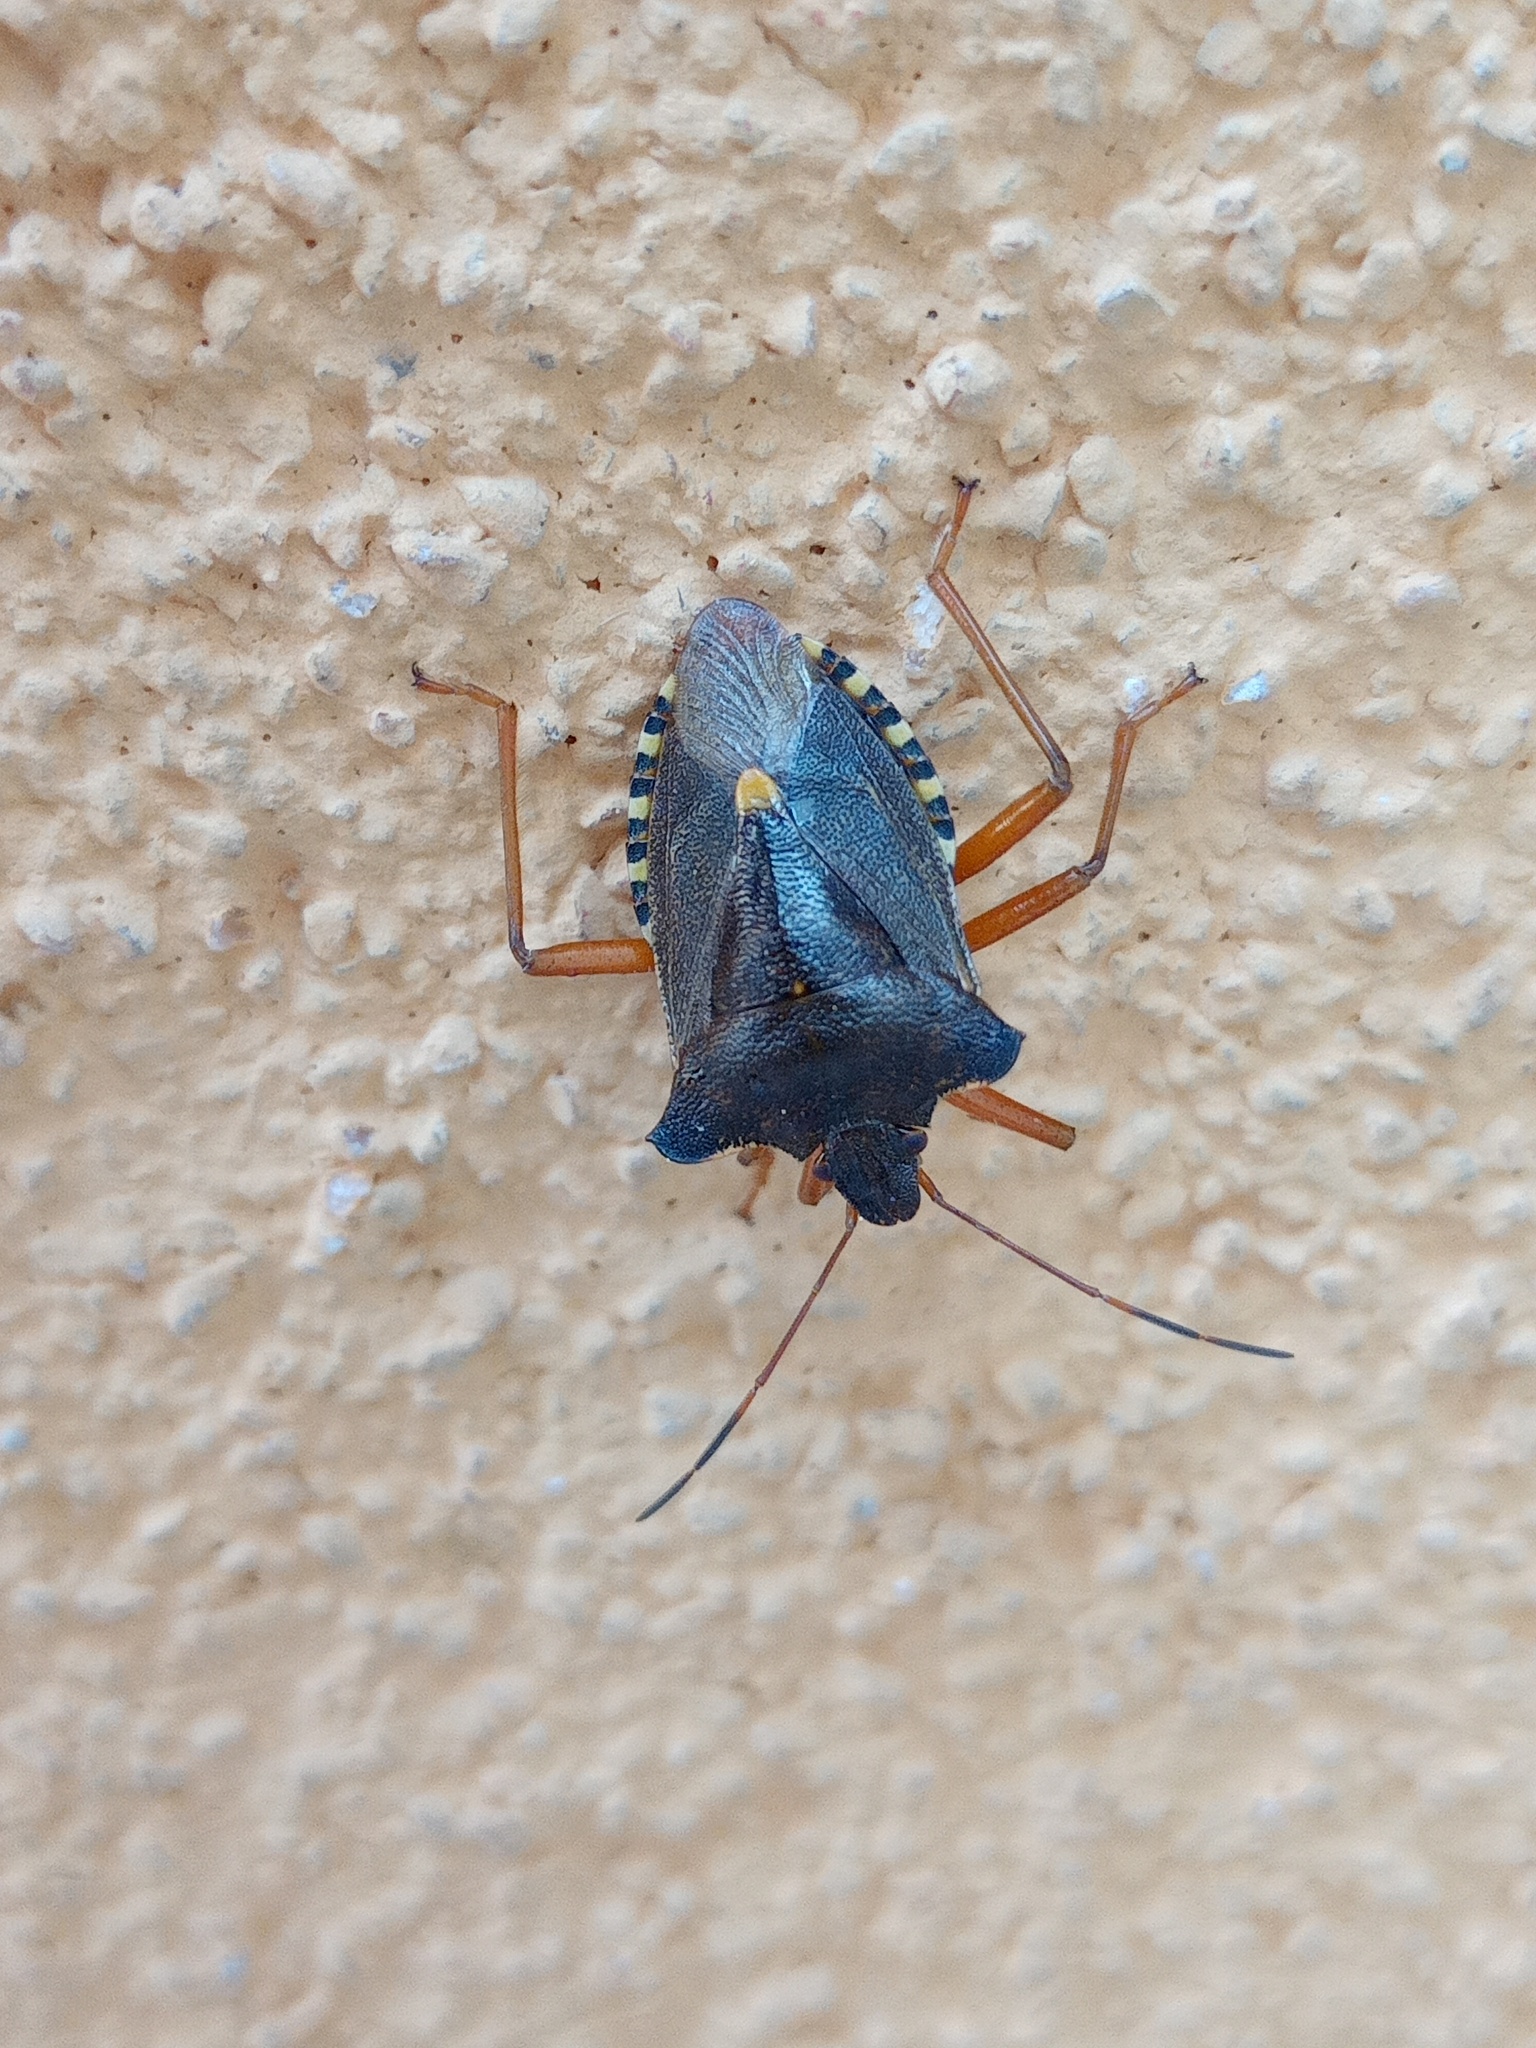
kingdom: Animalia
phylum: Arthropoda
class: Insecta
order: Hemiptera
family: Pentatomidae
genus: Pentatoma
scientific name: Pentatoma rufipes
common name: Forest bug
